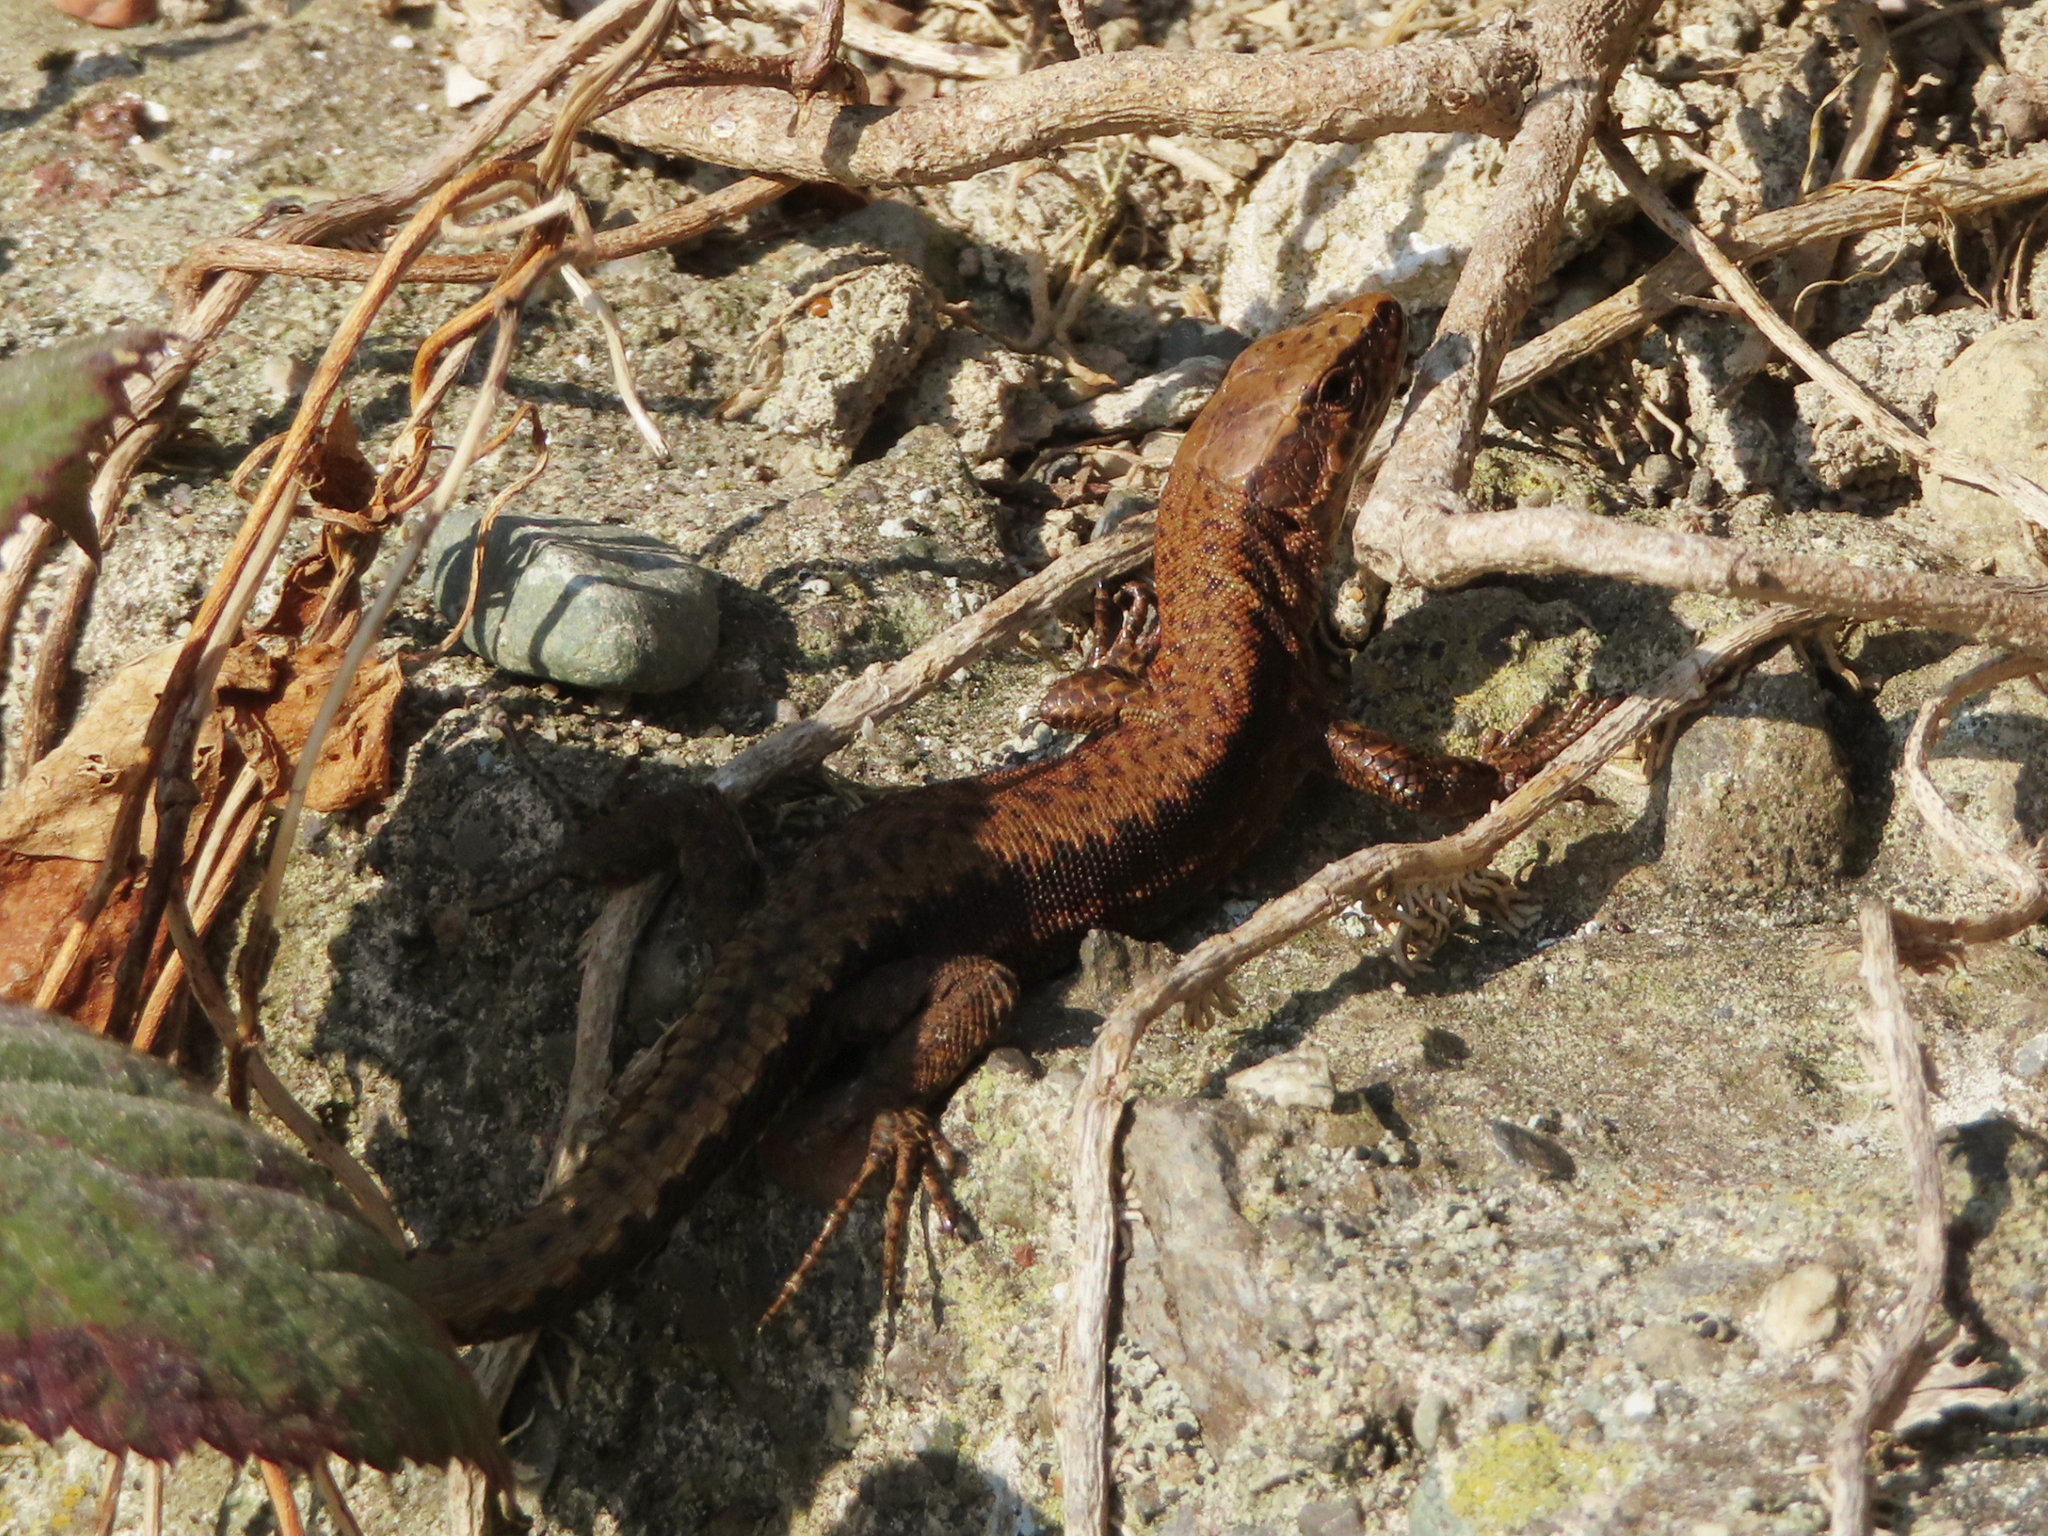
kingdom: Animalia
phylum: Chordata
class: Squamata
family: Lacertidae
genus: Darevskia
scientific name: Darevskia derjugini
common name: Derjugin's lizard
